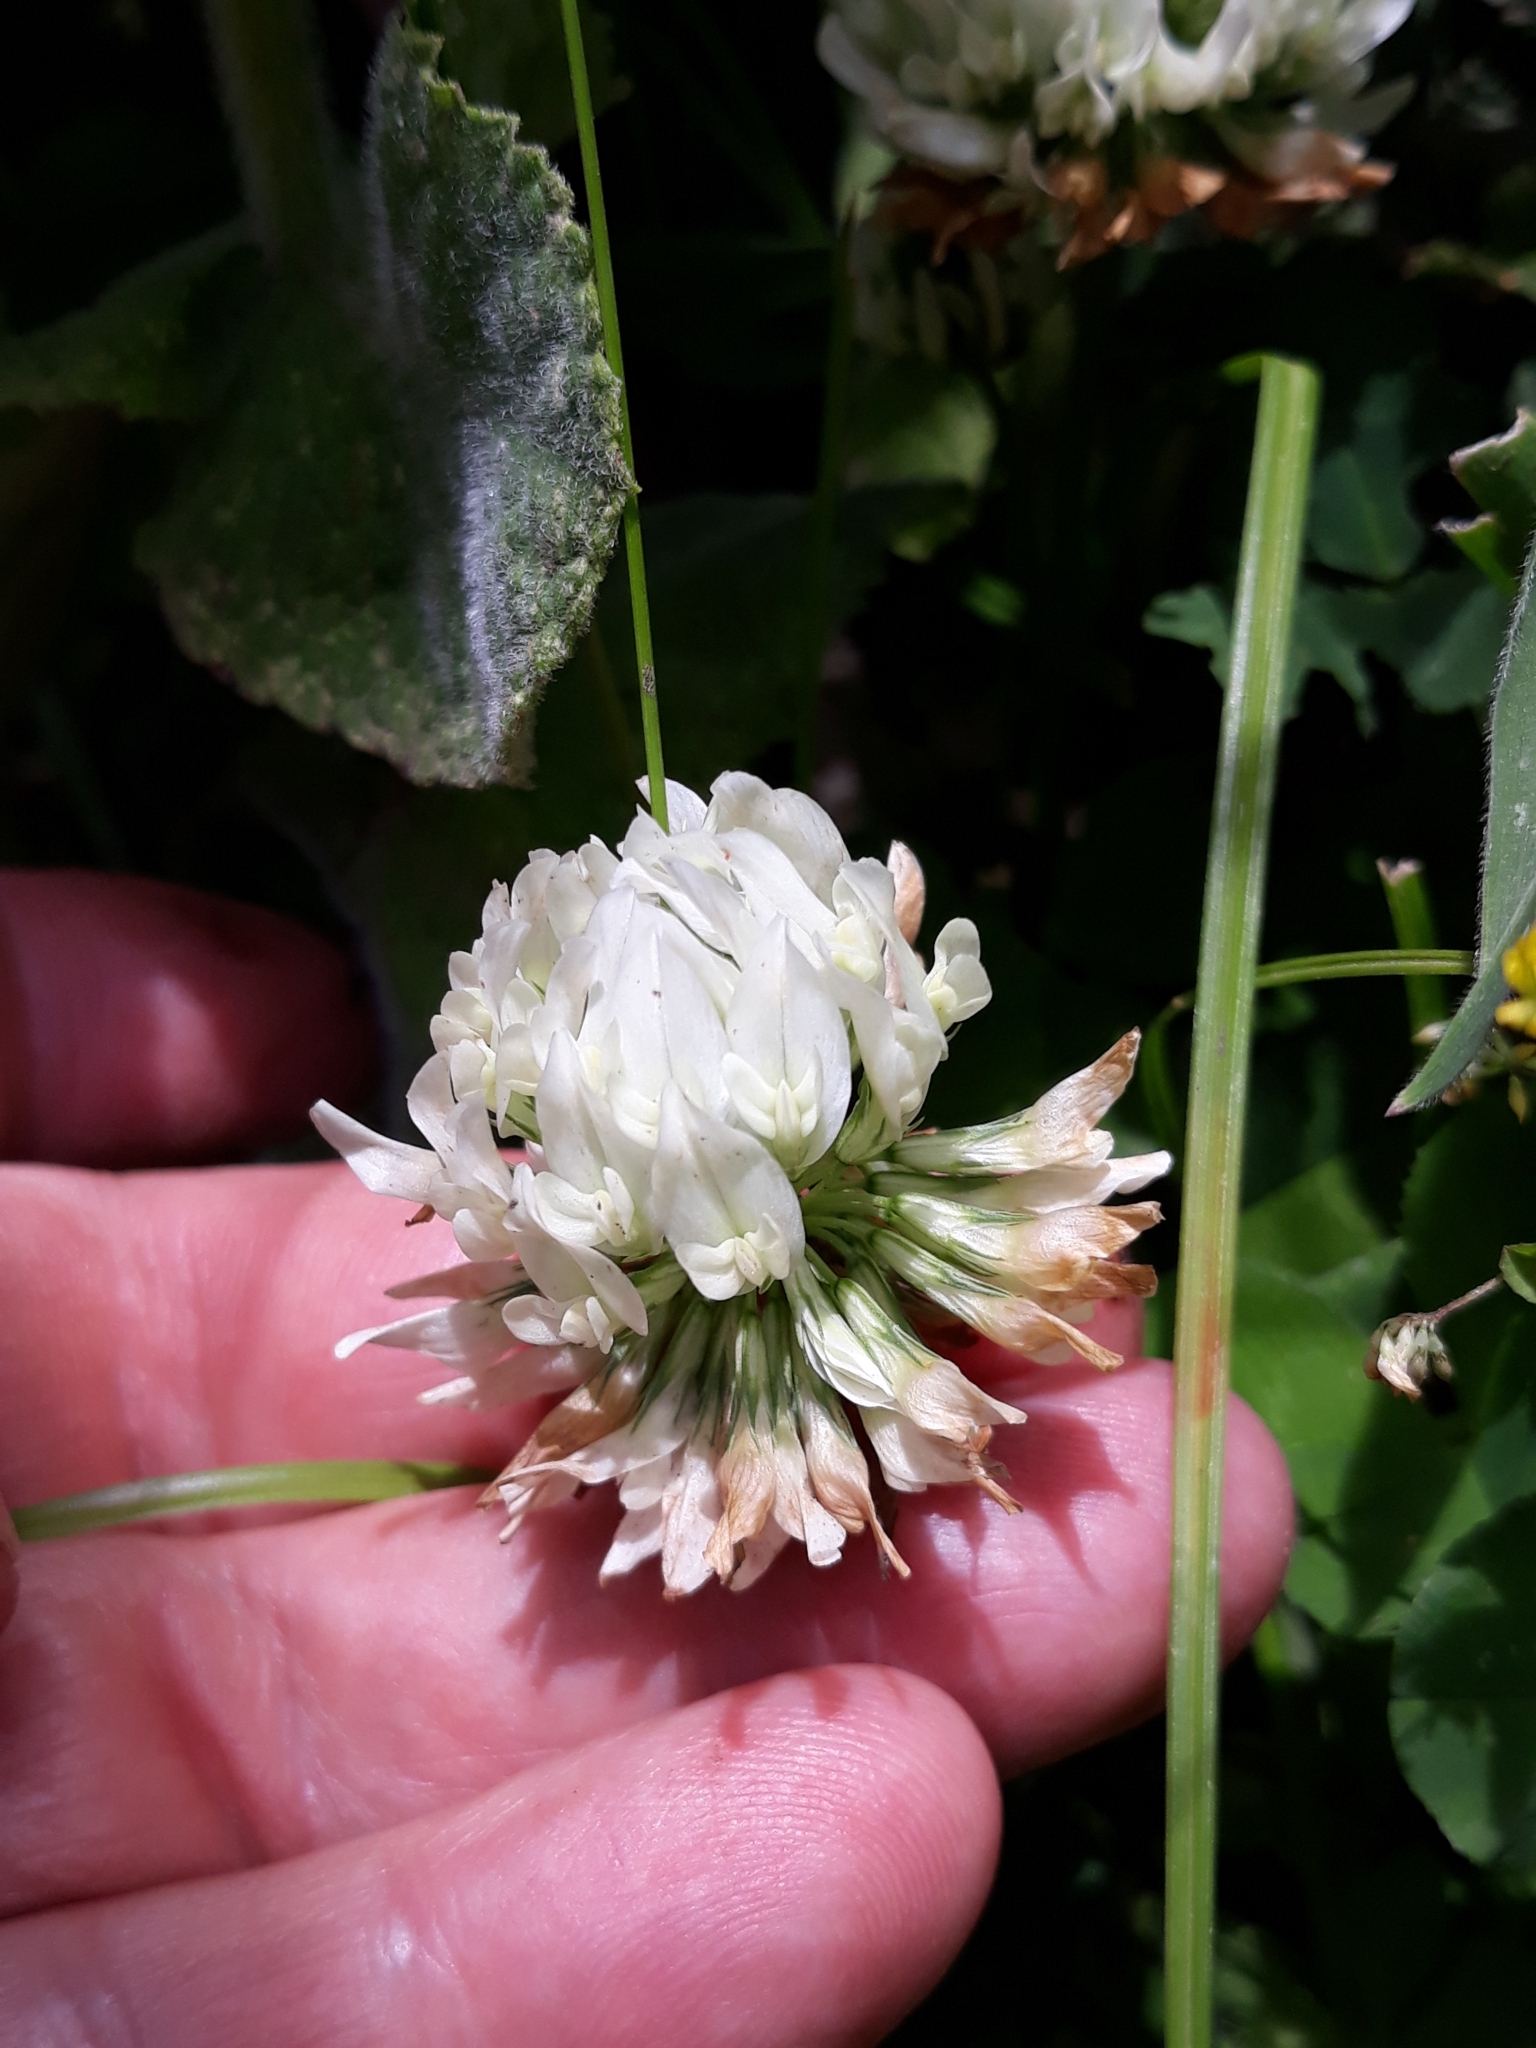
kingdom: Plantae
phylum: Tracheophyta
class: Magnoliopsida
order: Fabales
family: Fabaceae
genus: Trifolium
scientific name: Trifolium repens
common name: White clover
